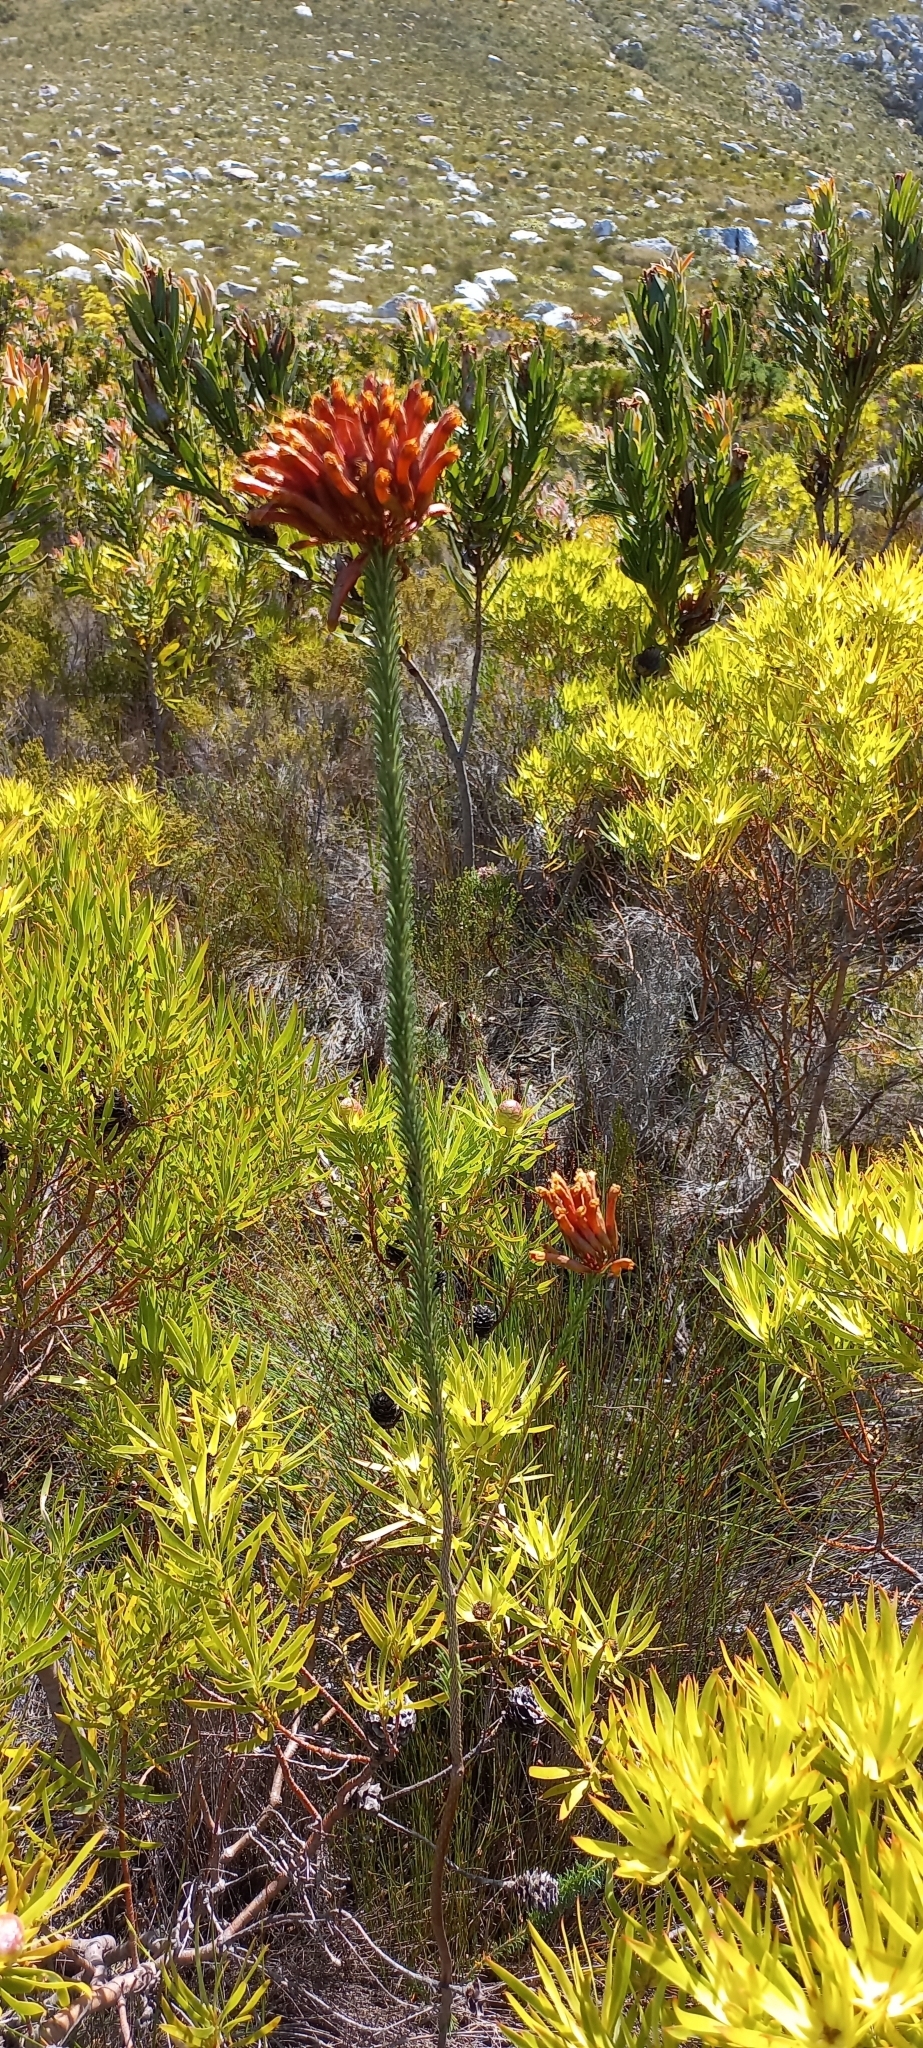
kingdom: Plantae
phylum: Tracheophyta
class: Magnoliopsida
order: Ericales
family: Ericaceae
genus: Erica
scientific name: Erica fascicularis
